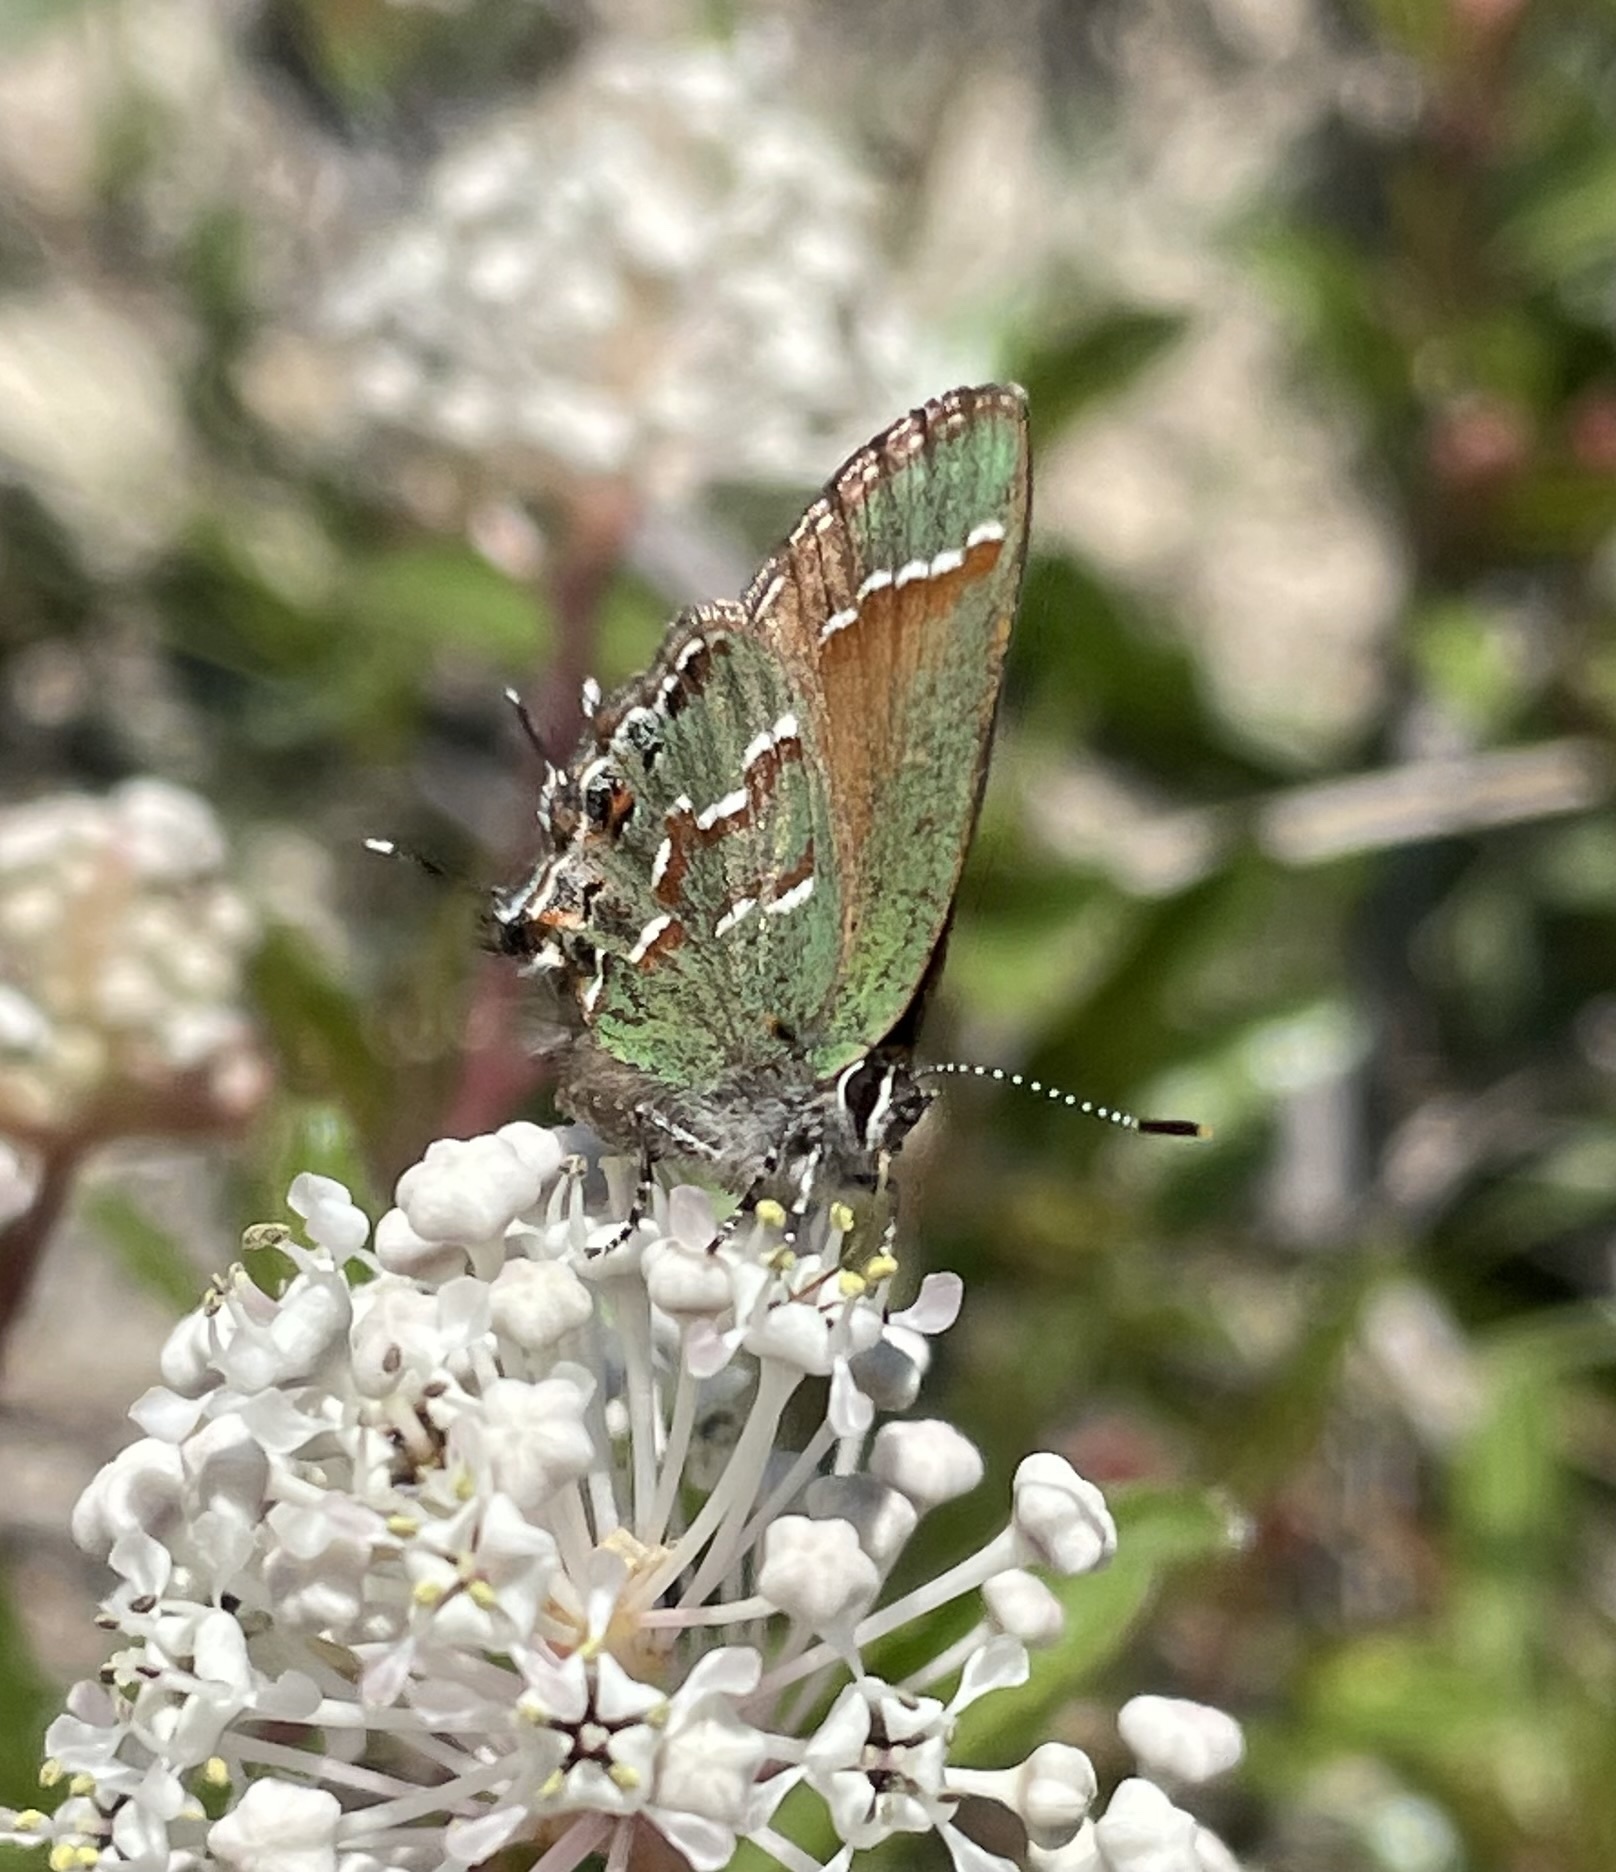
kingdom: Animalia
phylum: Arthropoda
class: Insecta
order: Lepidoptera
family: Lycaenidae
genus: Mitoura
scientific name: Mitoura gryneus
